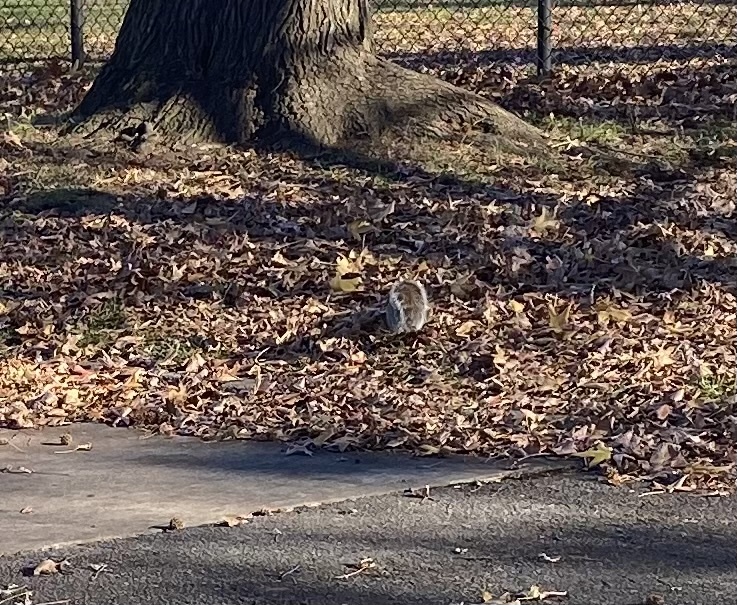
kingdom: Animalia
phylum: Chordata
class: Mammalia
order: Rodentia
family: Sciuridae
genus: Sciurus
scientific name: Sciurus carolinensis
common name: Eastern gray squirrel
